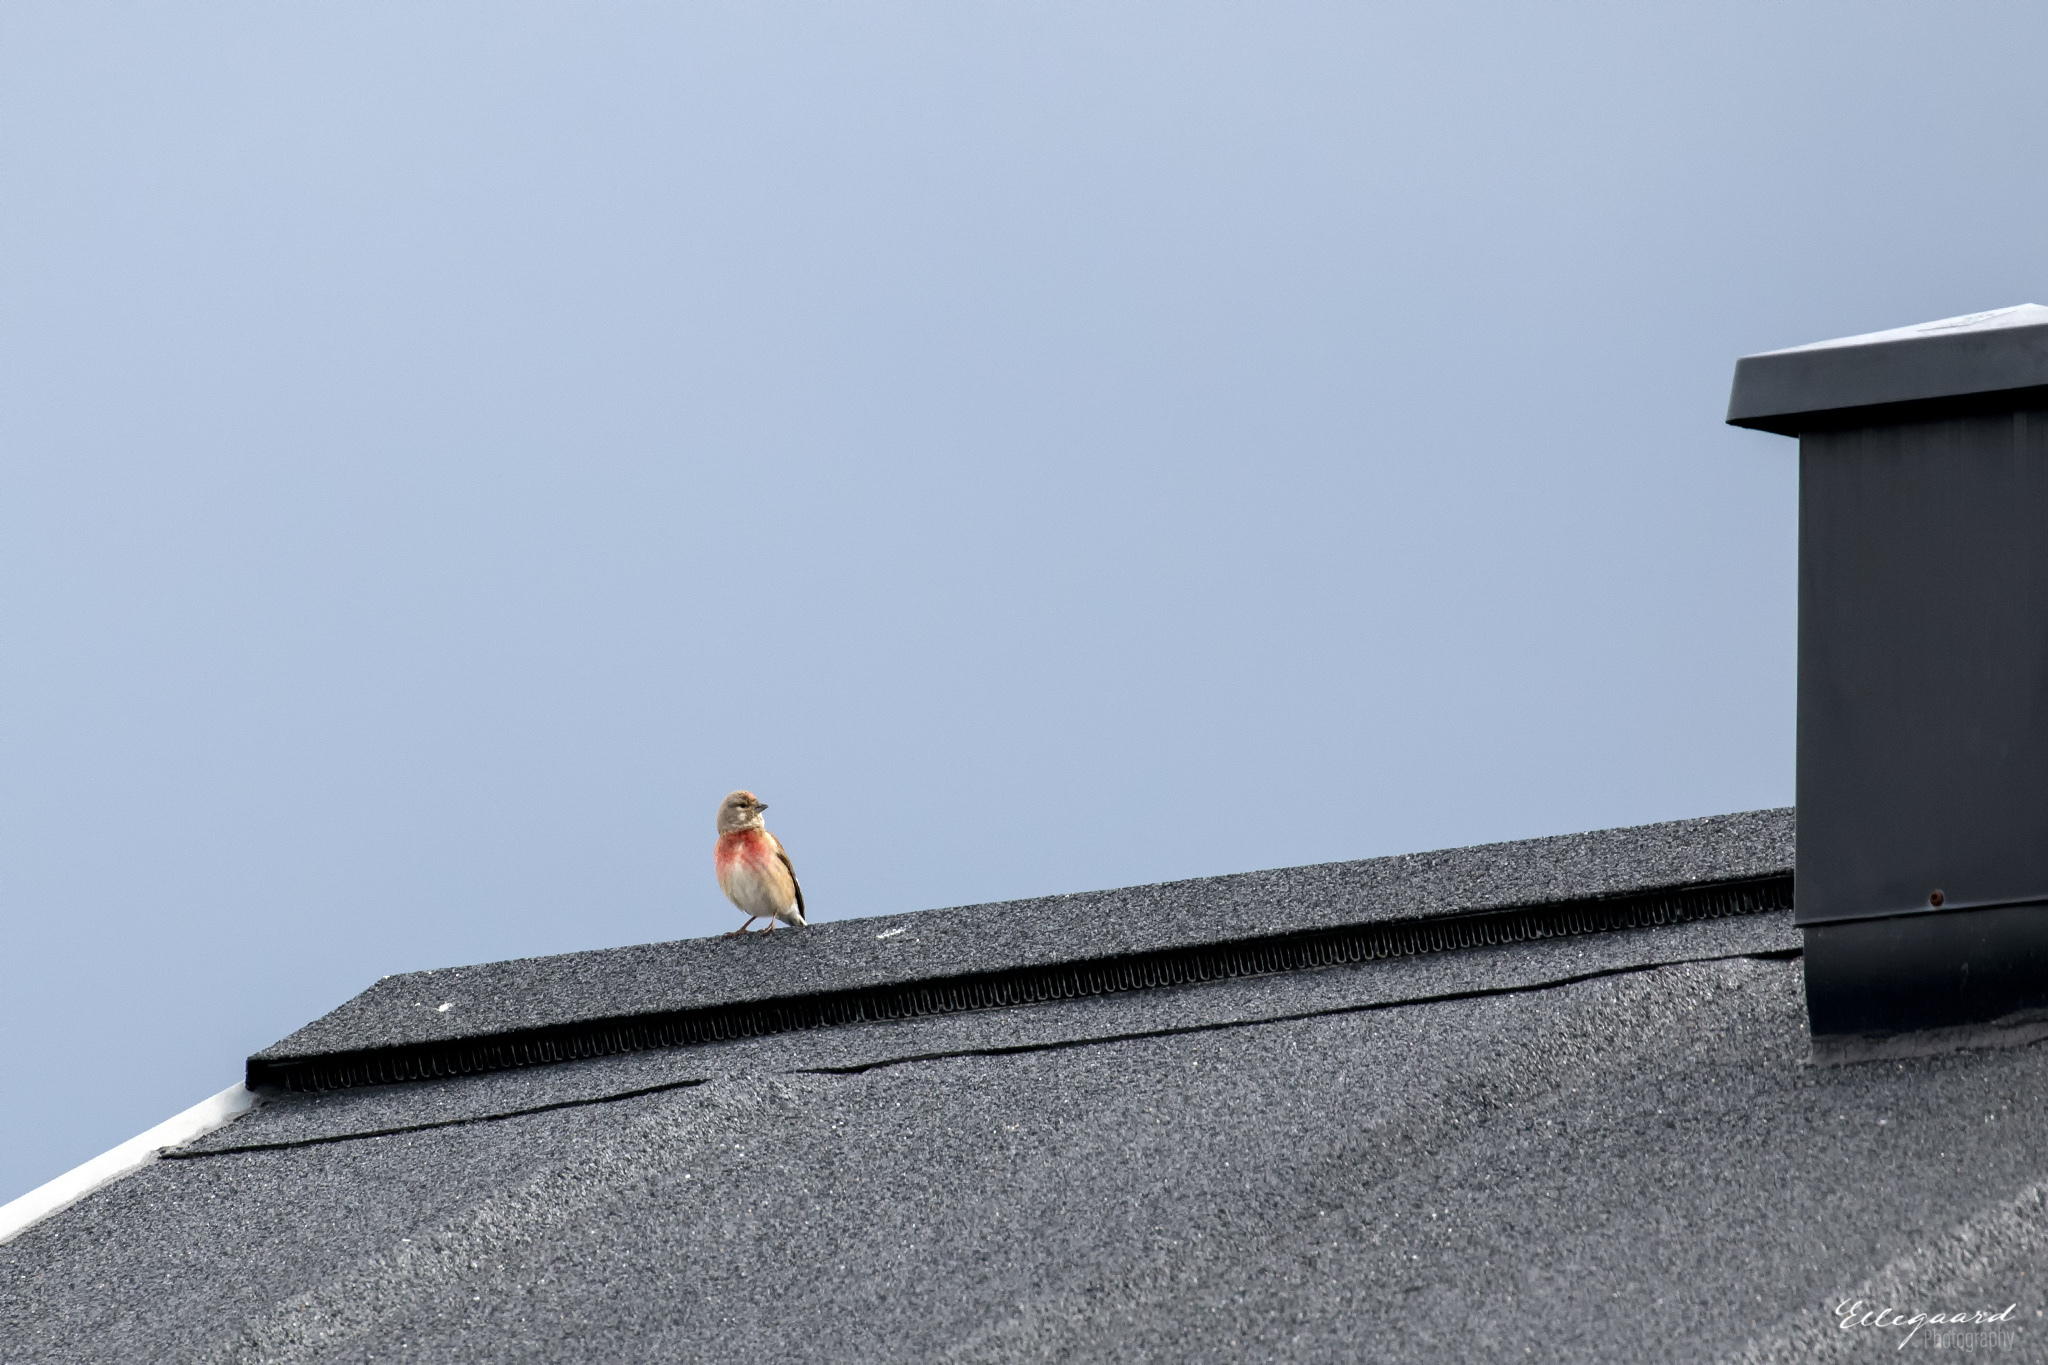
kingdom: Animalia
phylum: Chordata
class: Aves
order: Passeriformes
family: Fringillidae
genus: Linaria
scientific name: Linaria cannabina
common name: Common linnet
